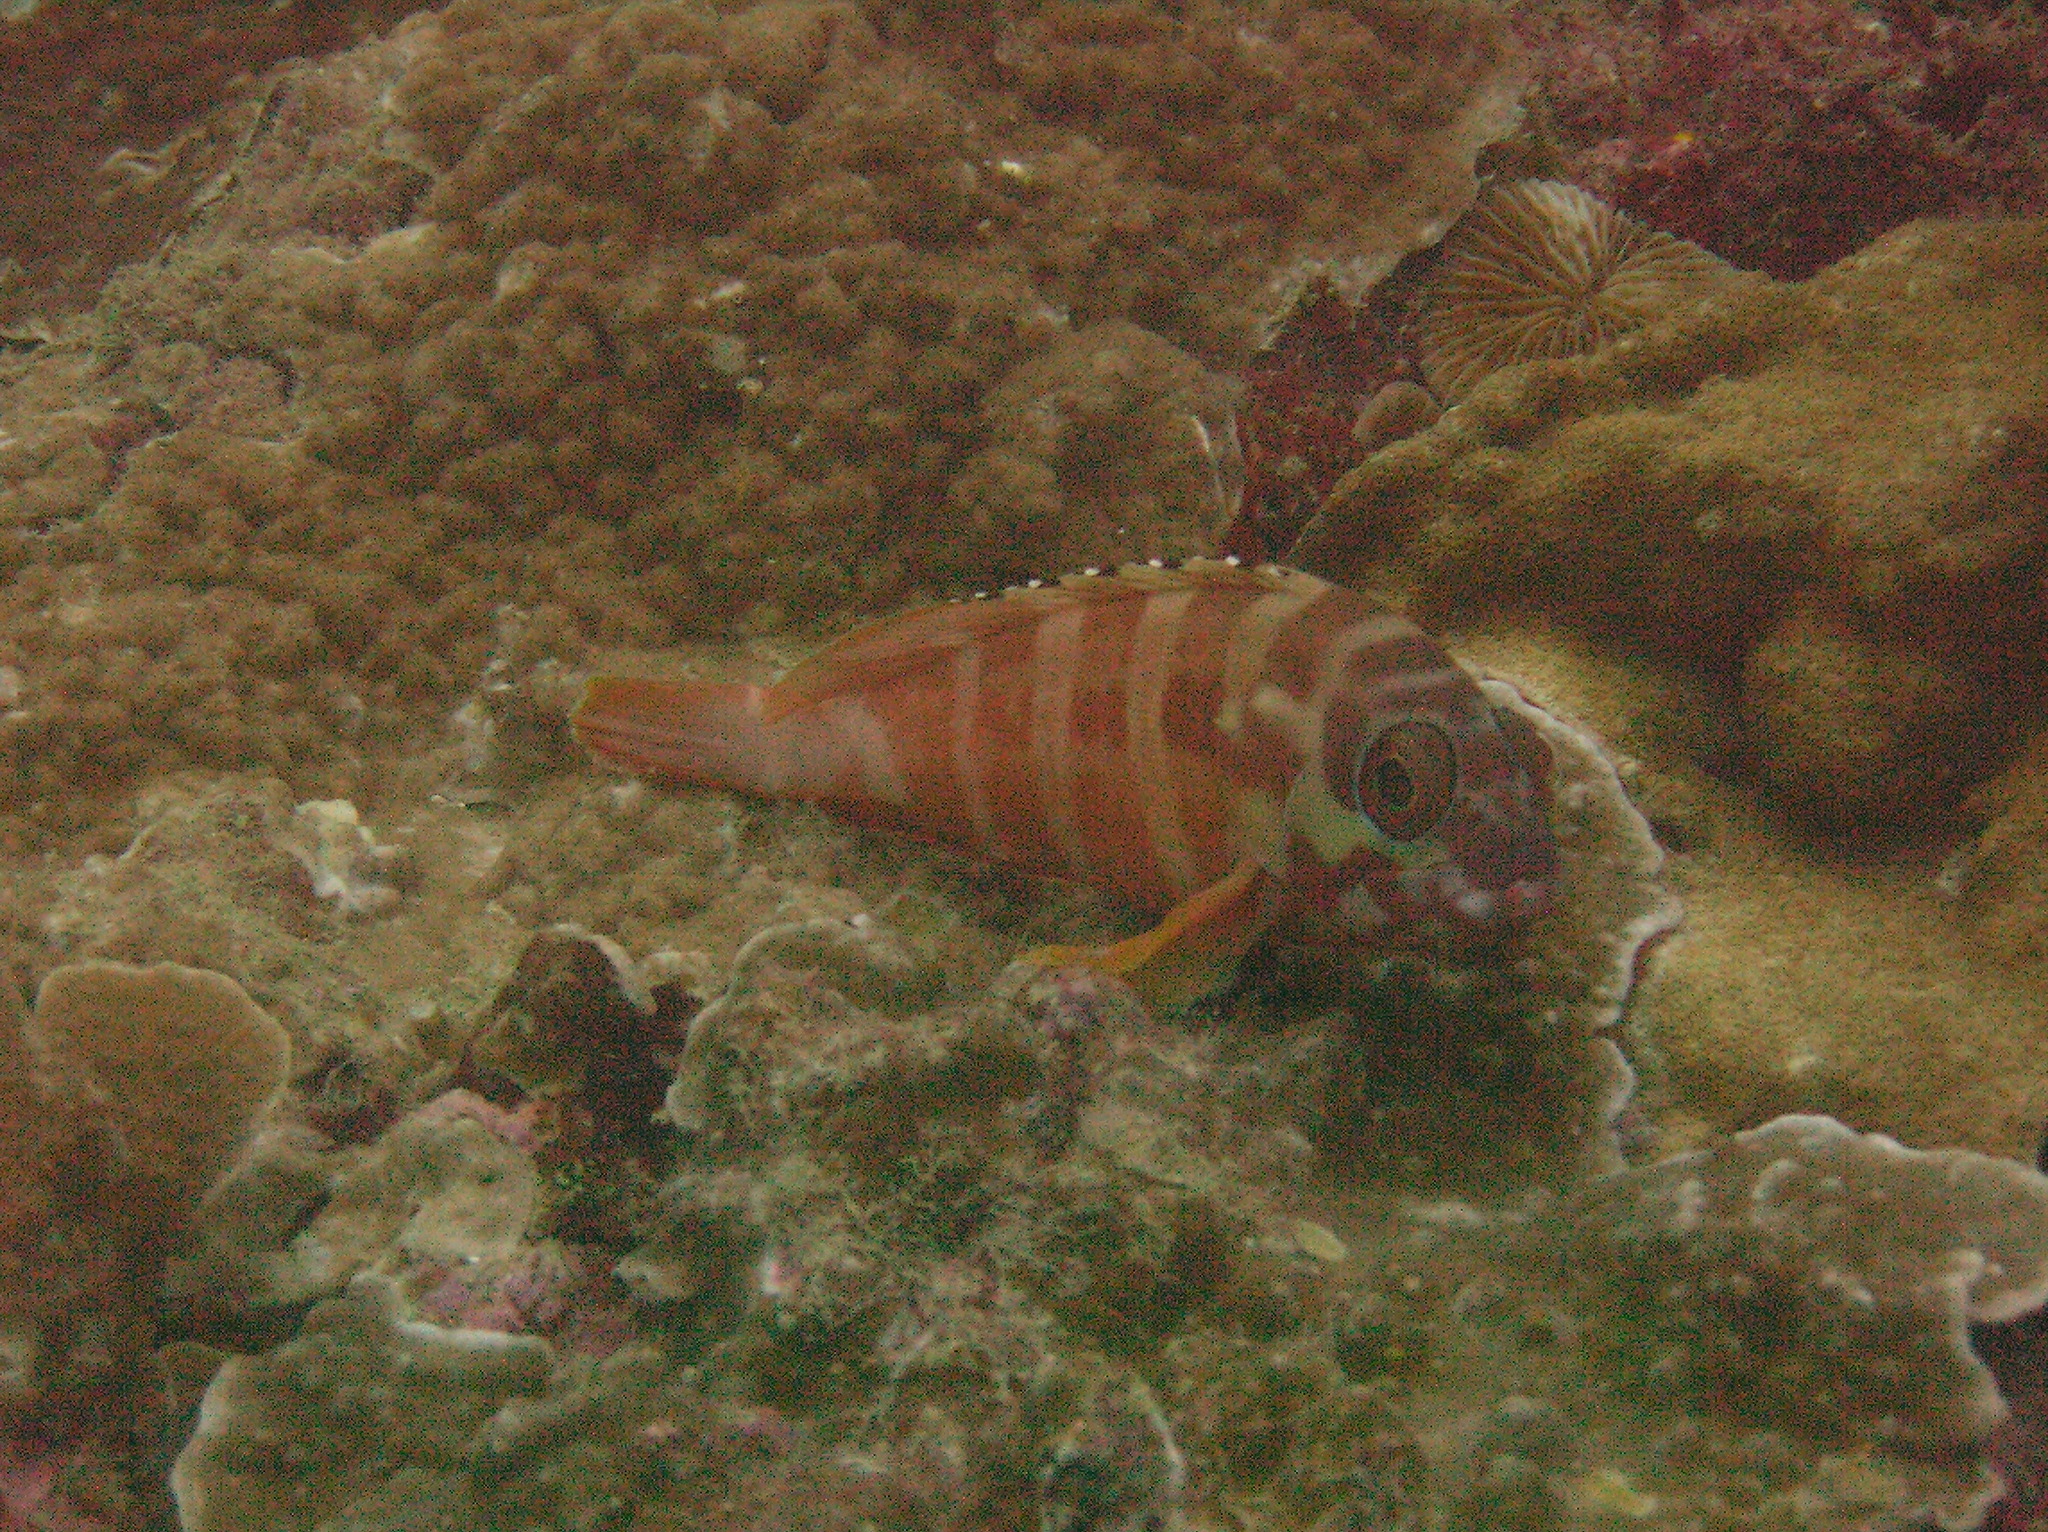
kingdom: Animalia
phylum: Chordata
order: Perciformes
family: Serranidae
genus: Epinephelus
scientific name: Epinephelus fasciatus
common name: Blacktip grouper
